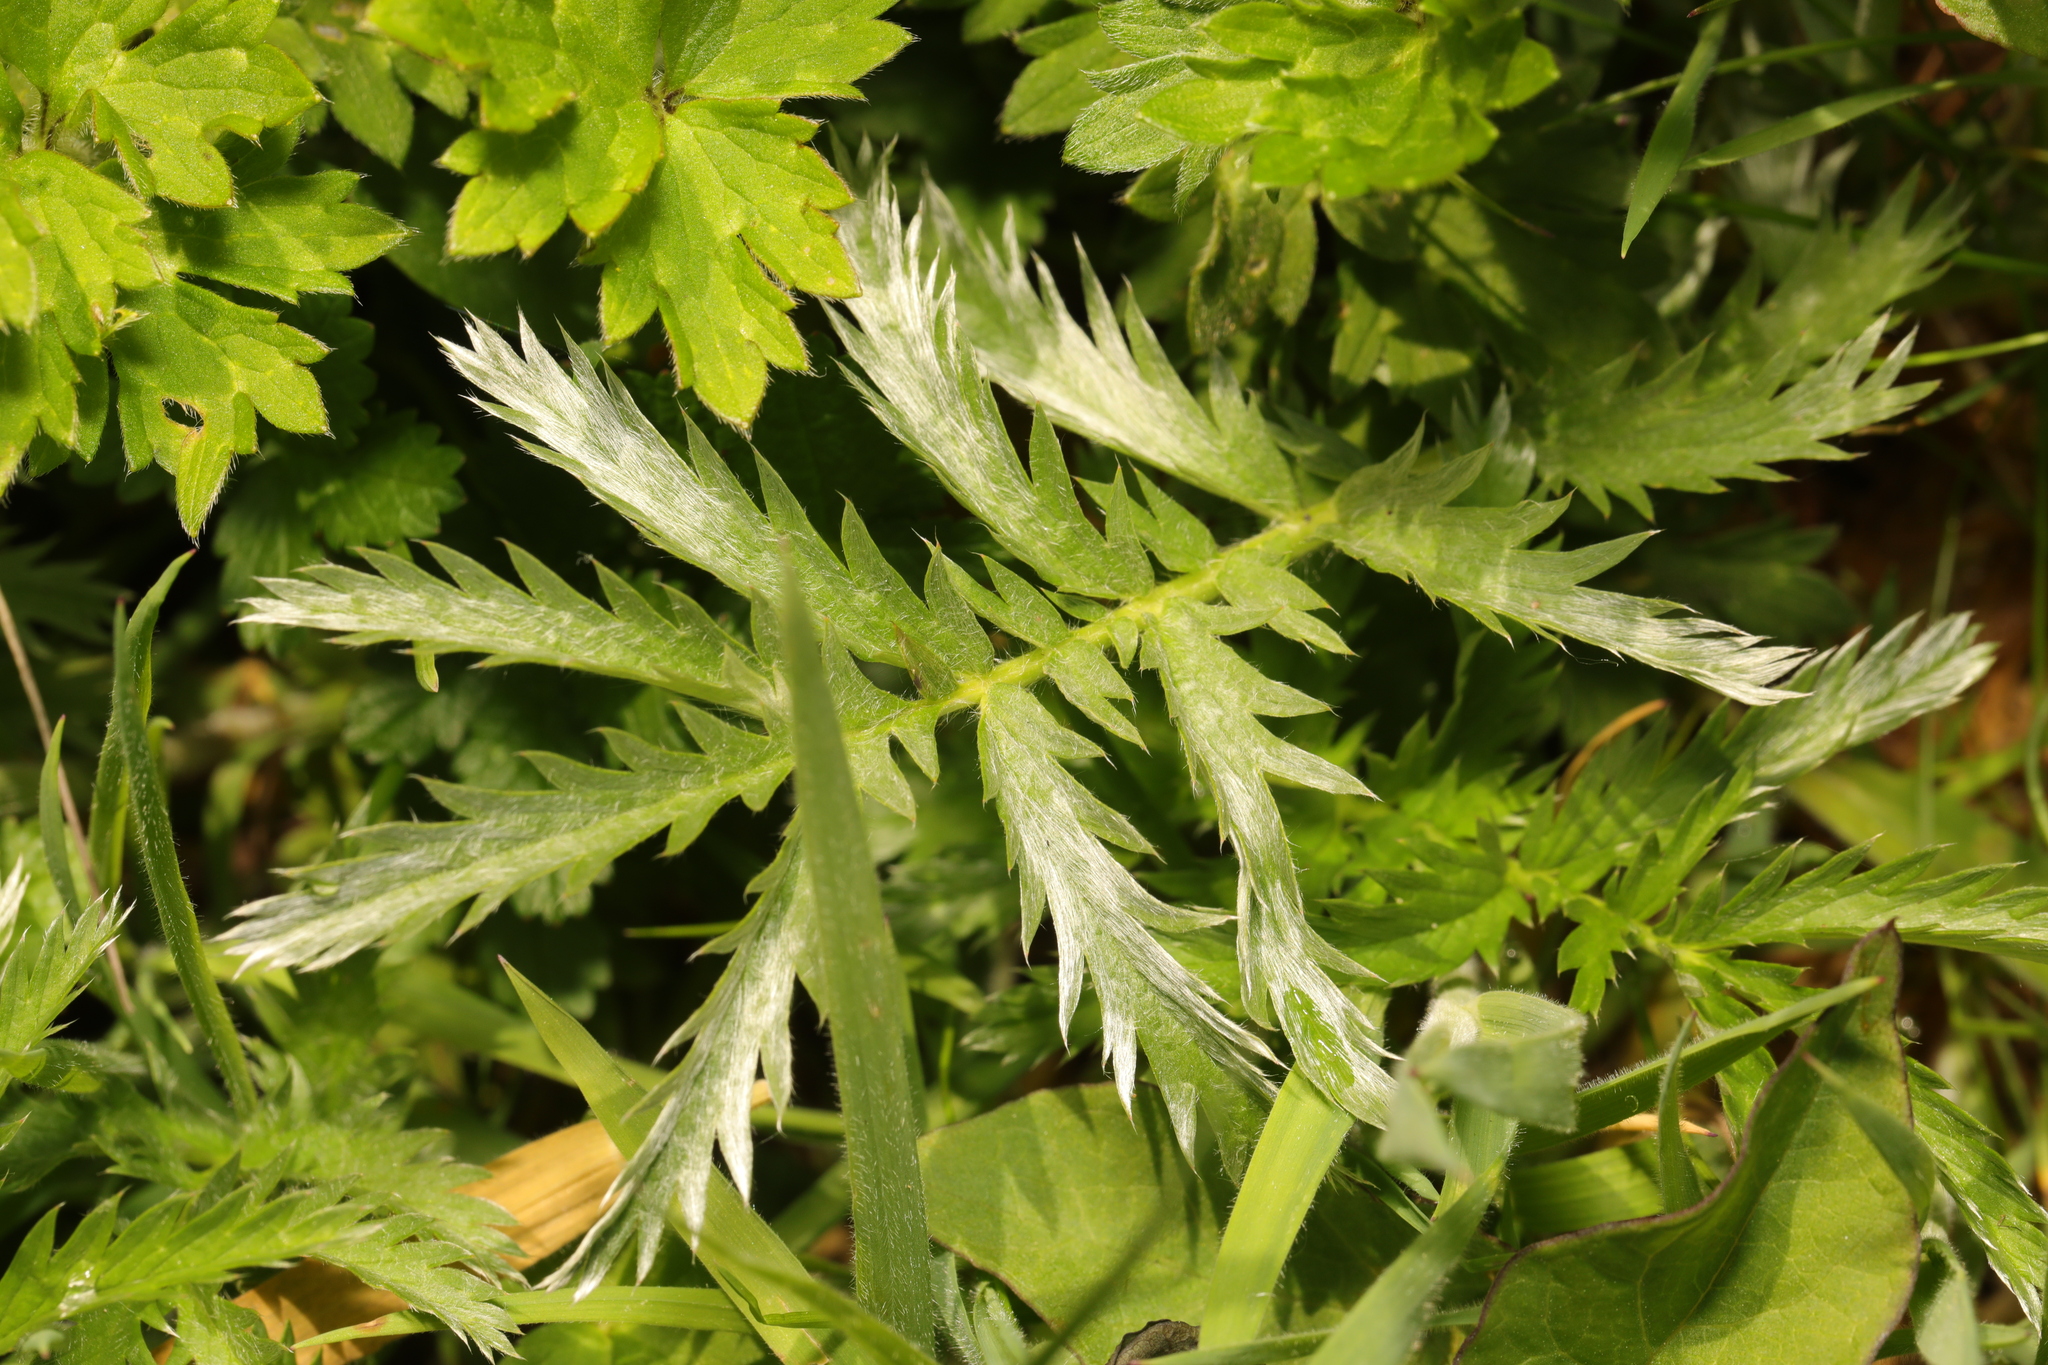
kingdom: Plantae
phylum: Tracheophyta
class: Magnoliopsida
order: Rosales
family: Rosaceae
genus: Argentina
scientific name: Argentina anserina
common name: Common silverweed
